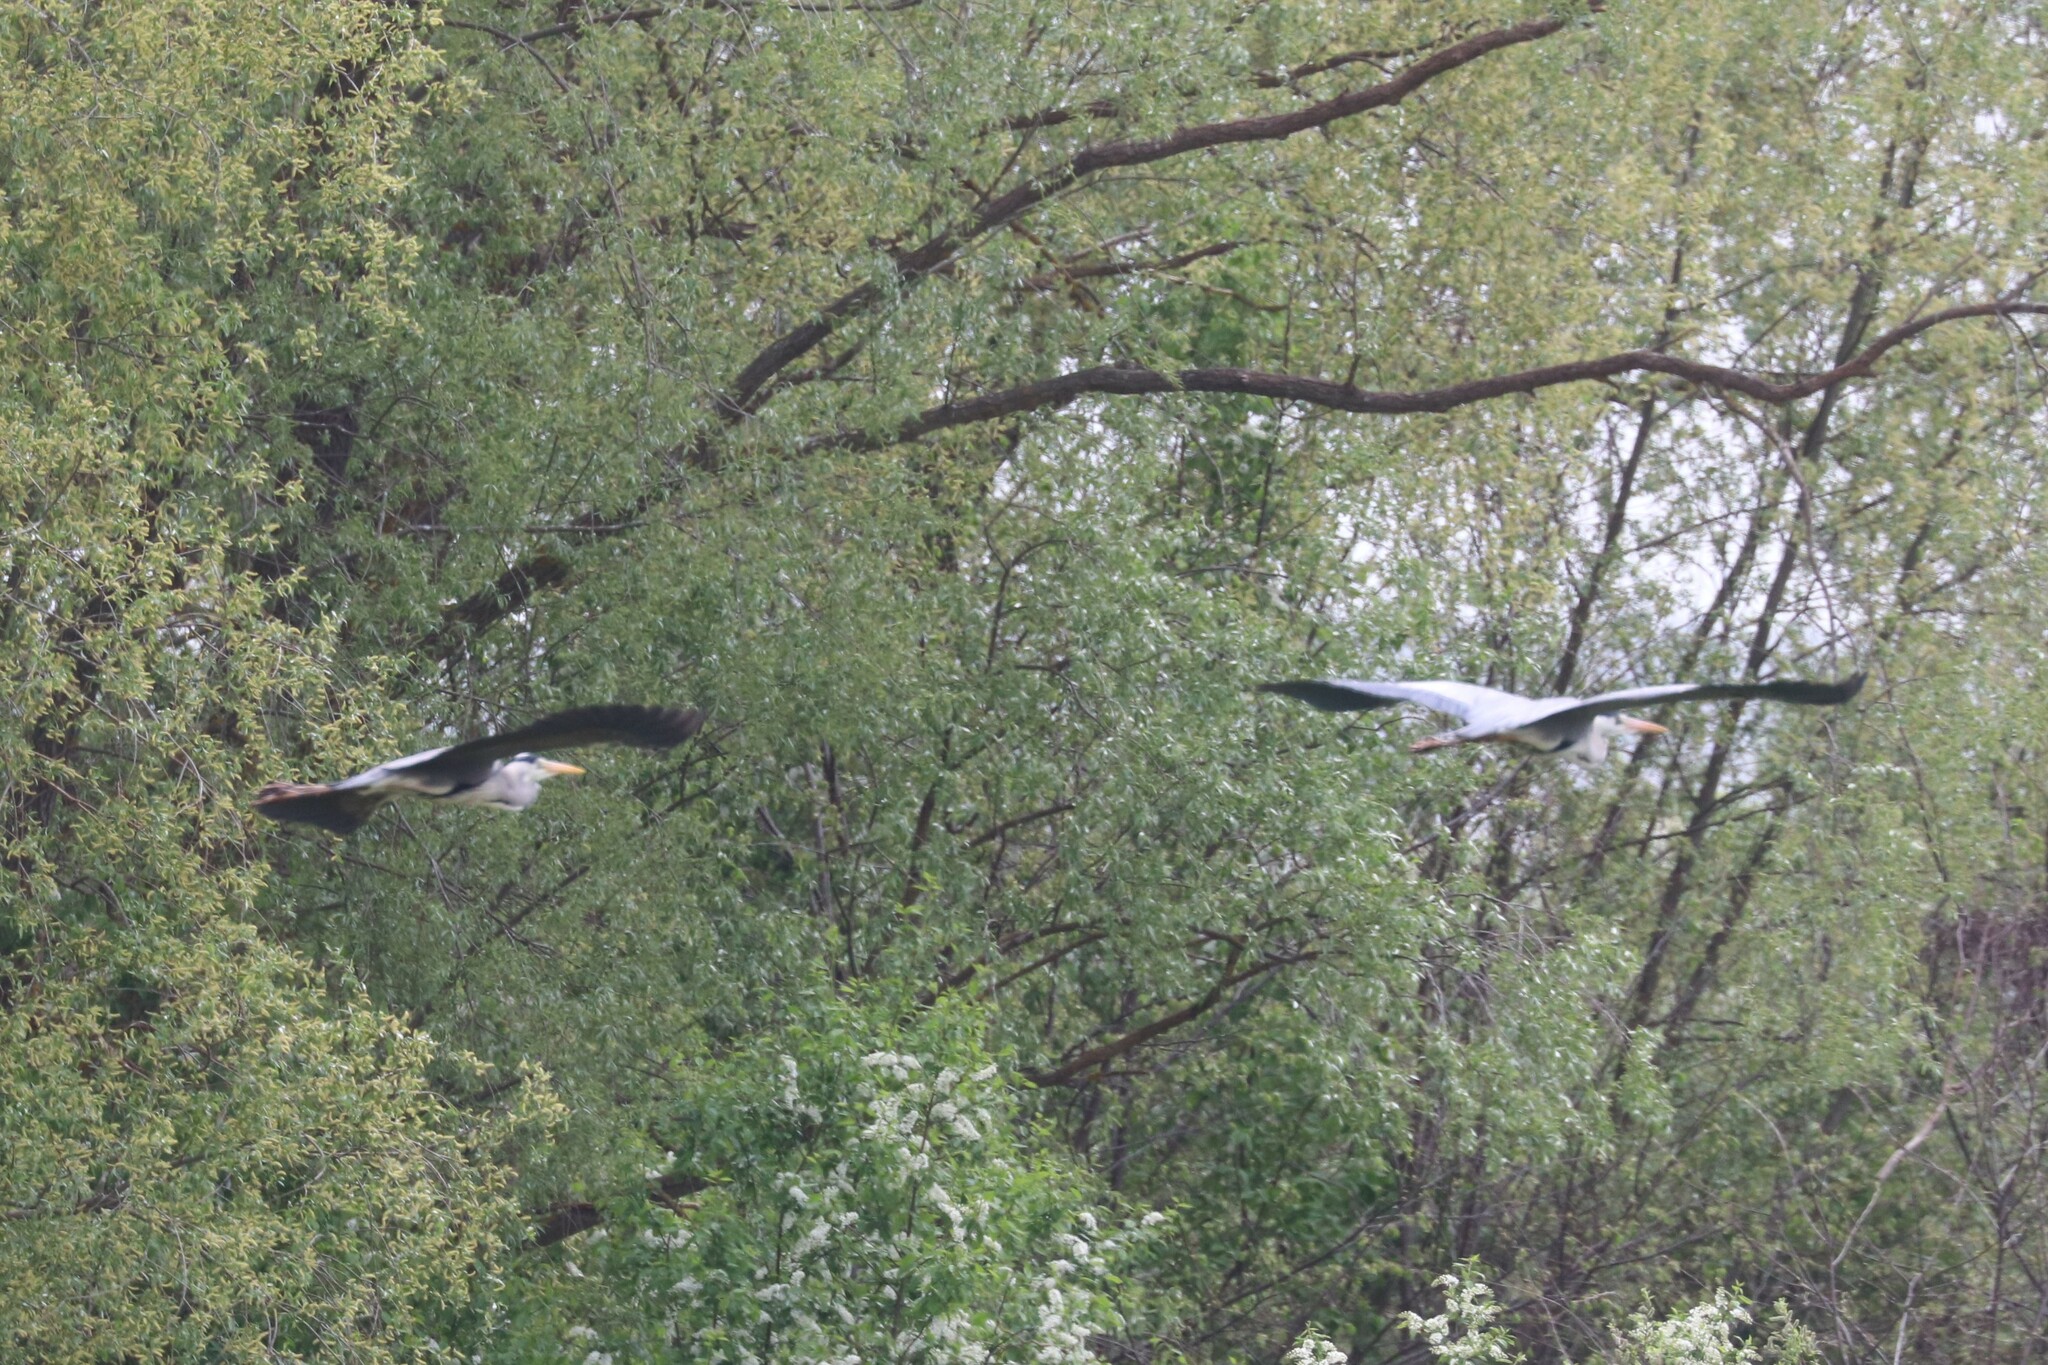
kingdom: Animalia
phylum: Chordata
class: Aves
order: Pelecaniformes
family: Ardeidae
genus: Ardea
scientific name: Ardea cinerea
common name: Grey heron
